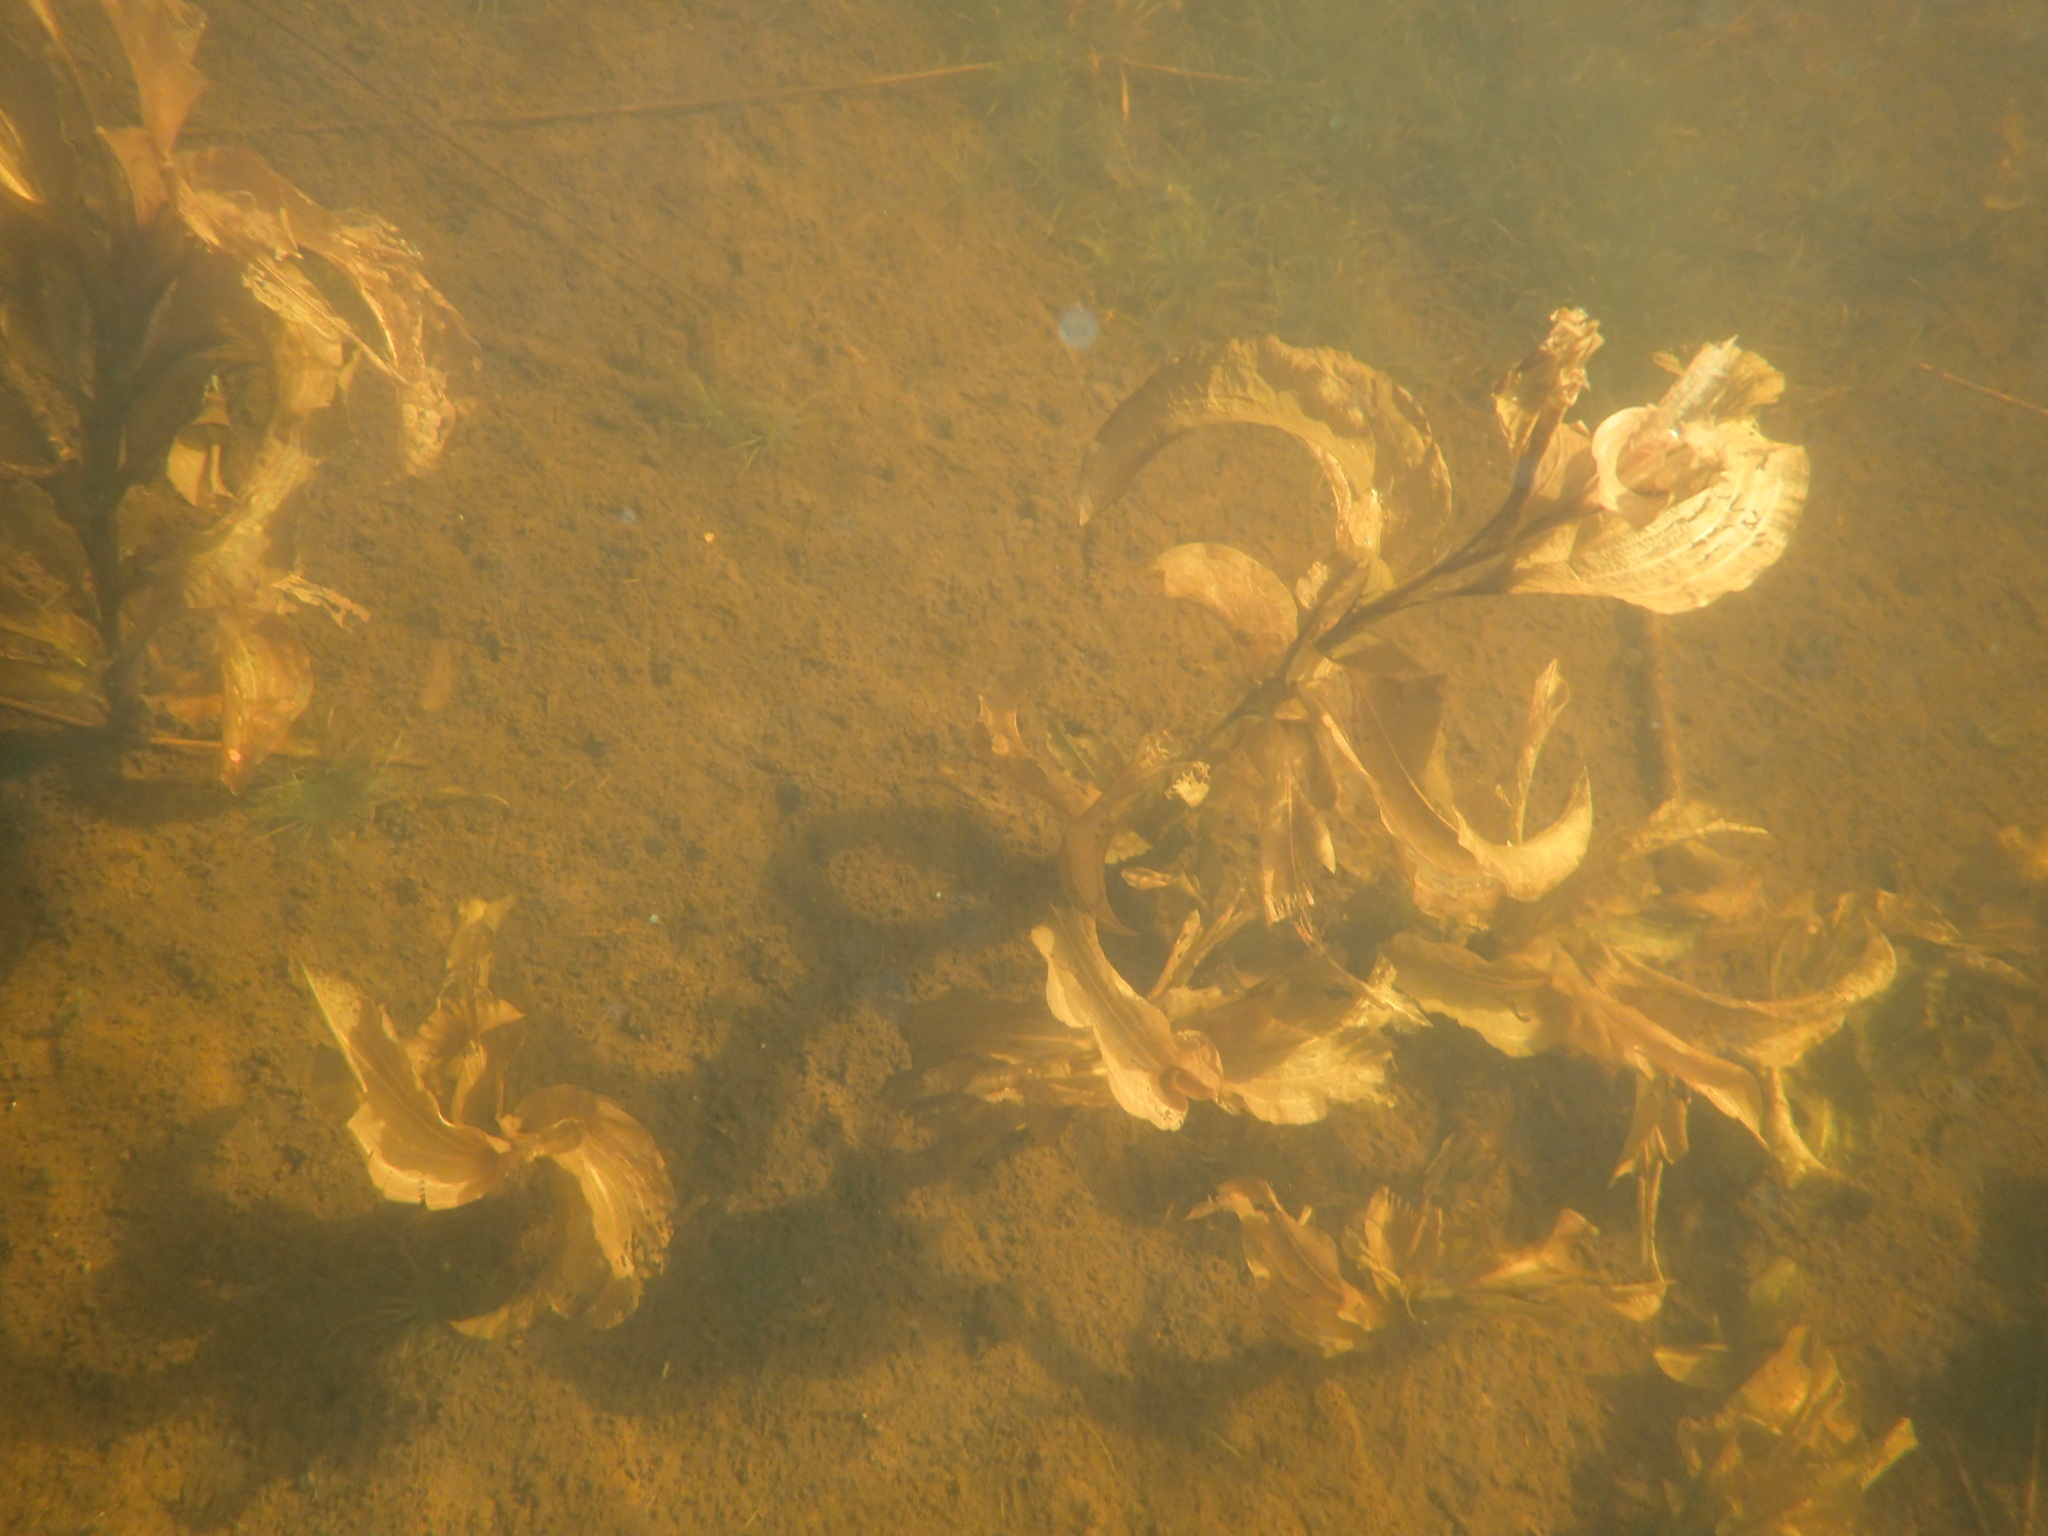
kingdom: Plantae
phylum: Tracheophyta
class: Liliopsida
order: Alismatales
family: Potamogetonaceae
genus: Potamogeton
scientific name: Potamogeton amplifolius
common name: Broad-leaved pondweed
